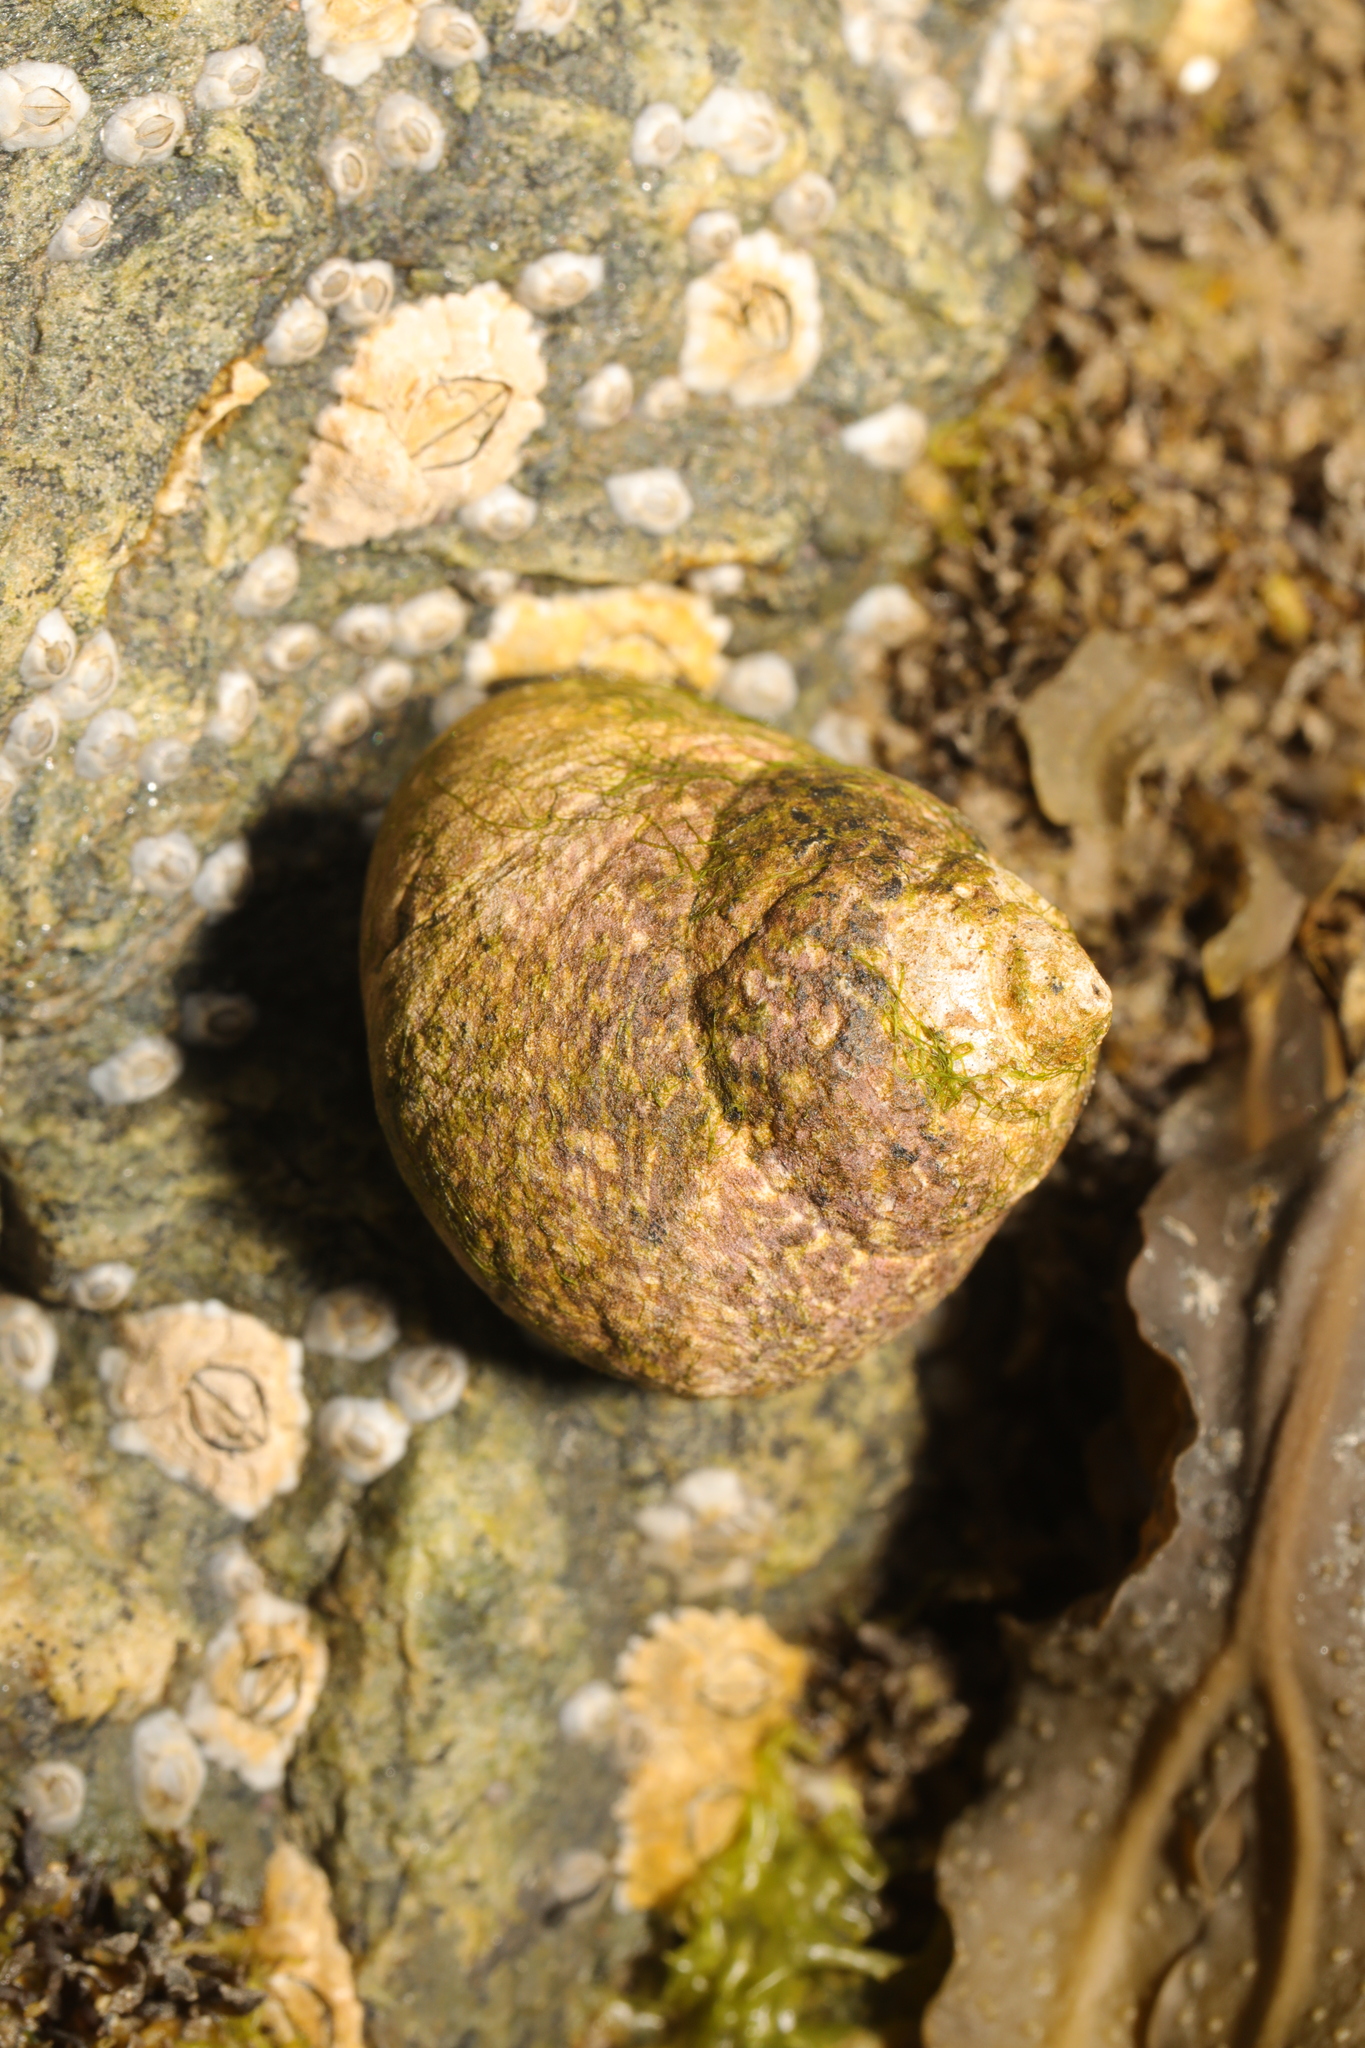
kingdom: Animalia
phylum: Mollusca
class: Gastropoda
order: Trochida
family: Trochidae
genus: Phorcus
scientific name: Phorcus lineatus
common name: Toothed top shell
